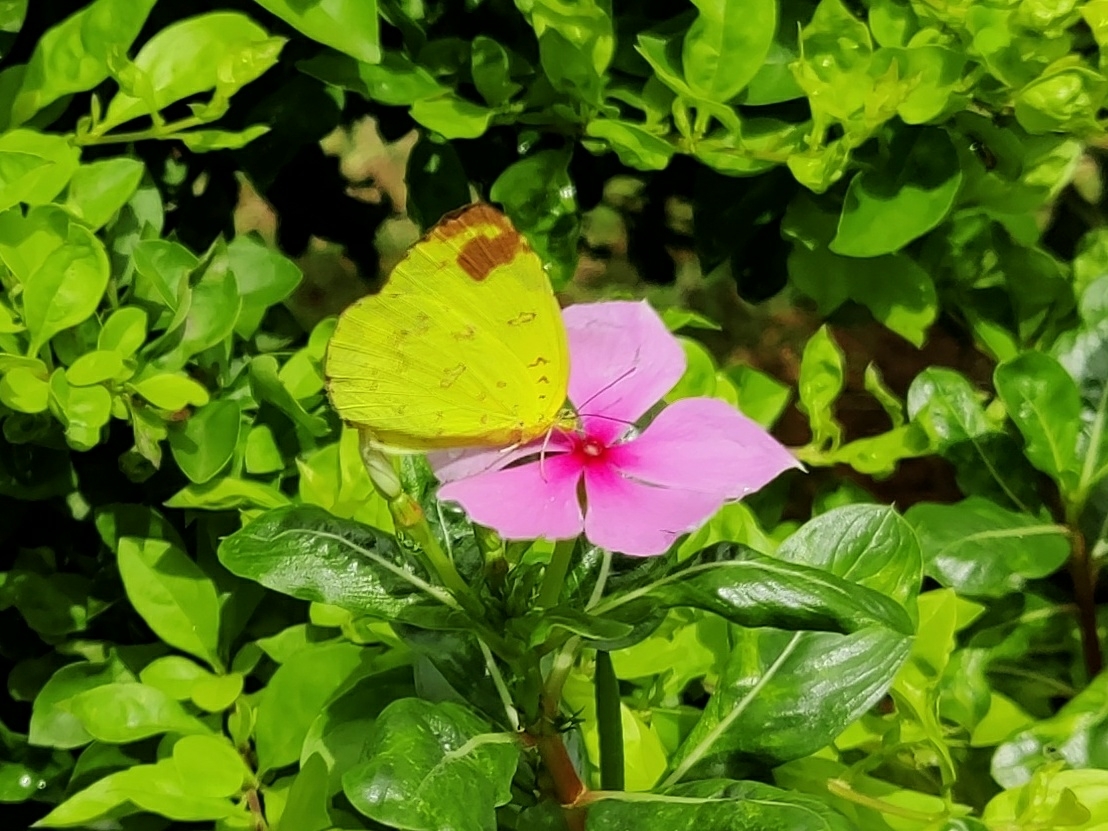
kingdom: Animalia
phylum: Arthropoda
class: Insecta
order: Lepidoptera
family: Pieridae
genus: Eurema
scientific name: Eurema blanda
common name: Three-spot grass yellow
